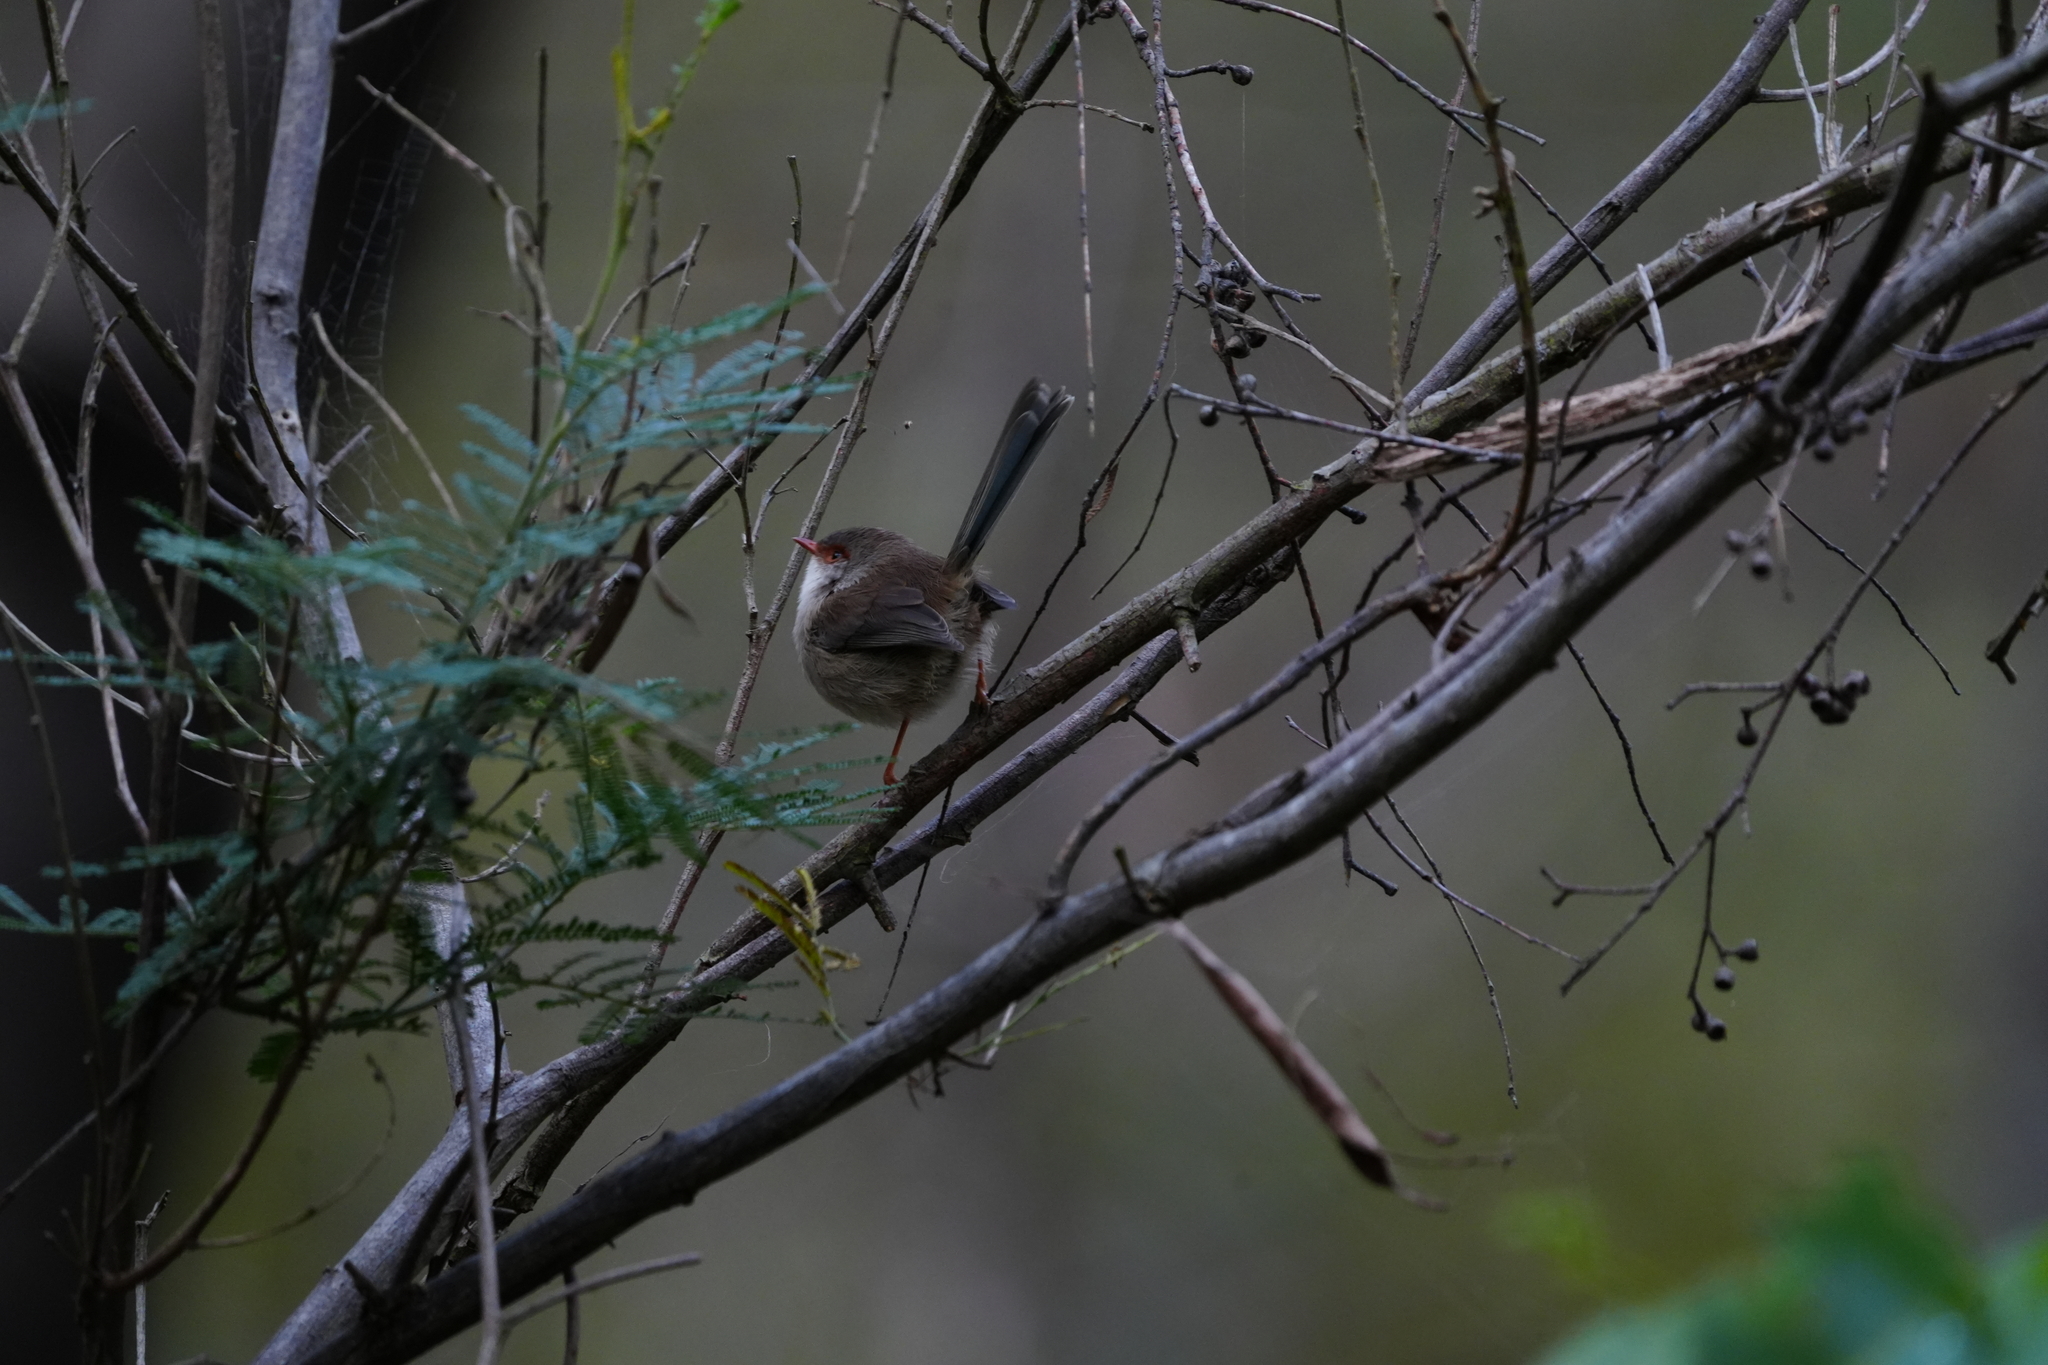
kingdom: Animalia
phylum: Chordata
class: Aves
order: Passeriformes
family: Maluridae
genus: Malurus
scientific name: Malurus cyaneus
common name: Superb fairywren
